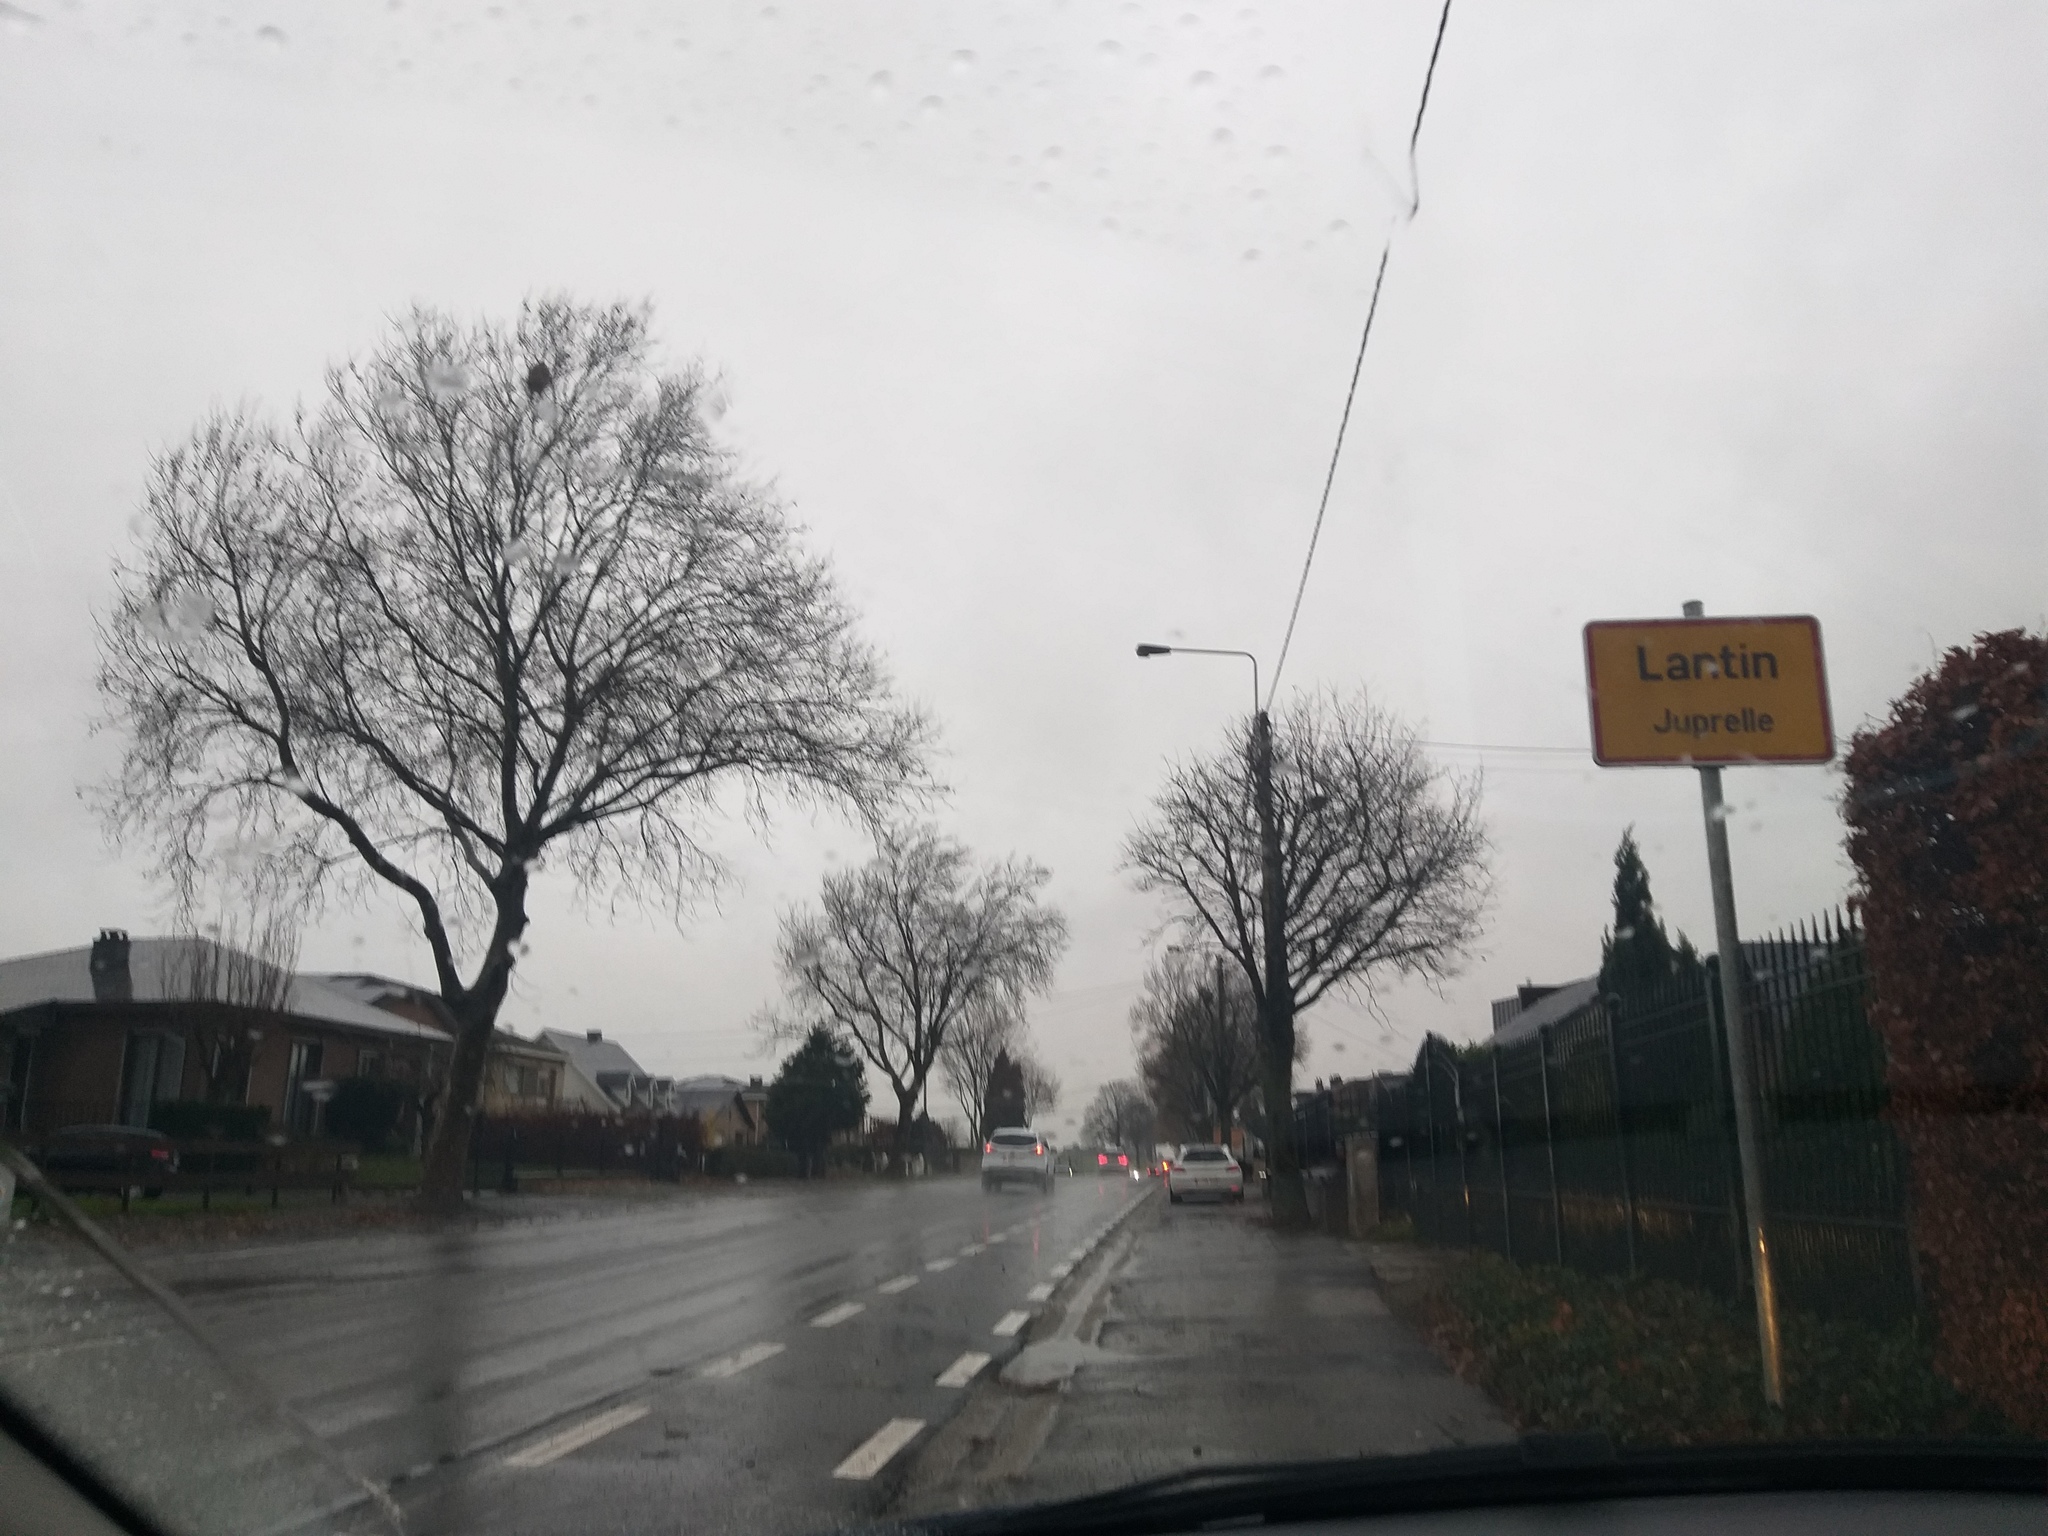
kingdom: Animalia
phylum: Arthropoda
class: Insecta
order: Hymenoptera
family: Vespidae
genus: Vespa
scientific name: Vespa velutina
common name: Asian hornet
